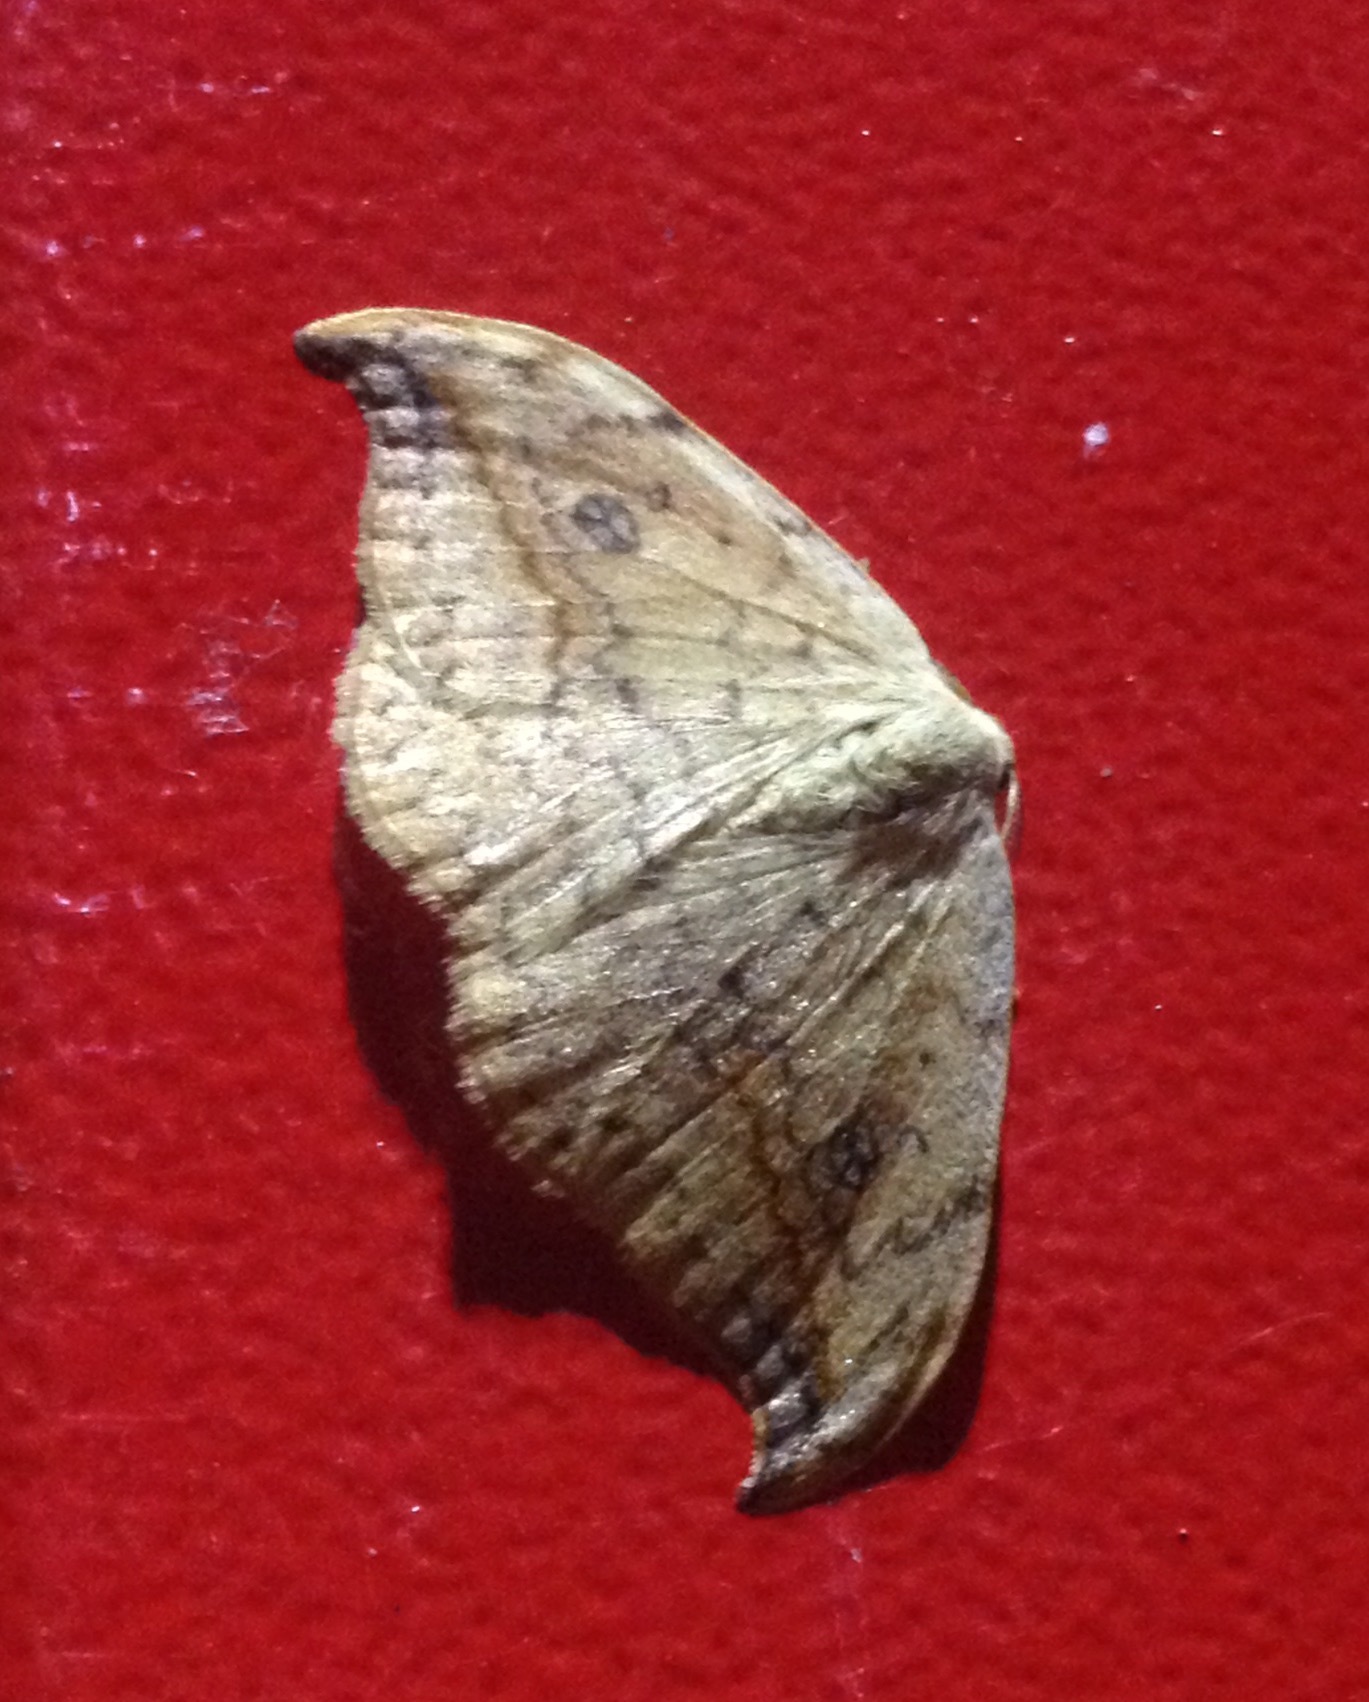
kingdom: Animalia
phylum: Arthropoda
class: Insecta
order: Lepidoptera
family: Drepanidae
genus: Drepana
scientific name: Drepana falcataria
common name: Pebble hook-tip
